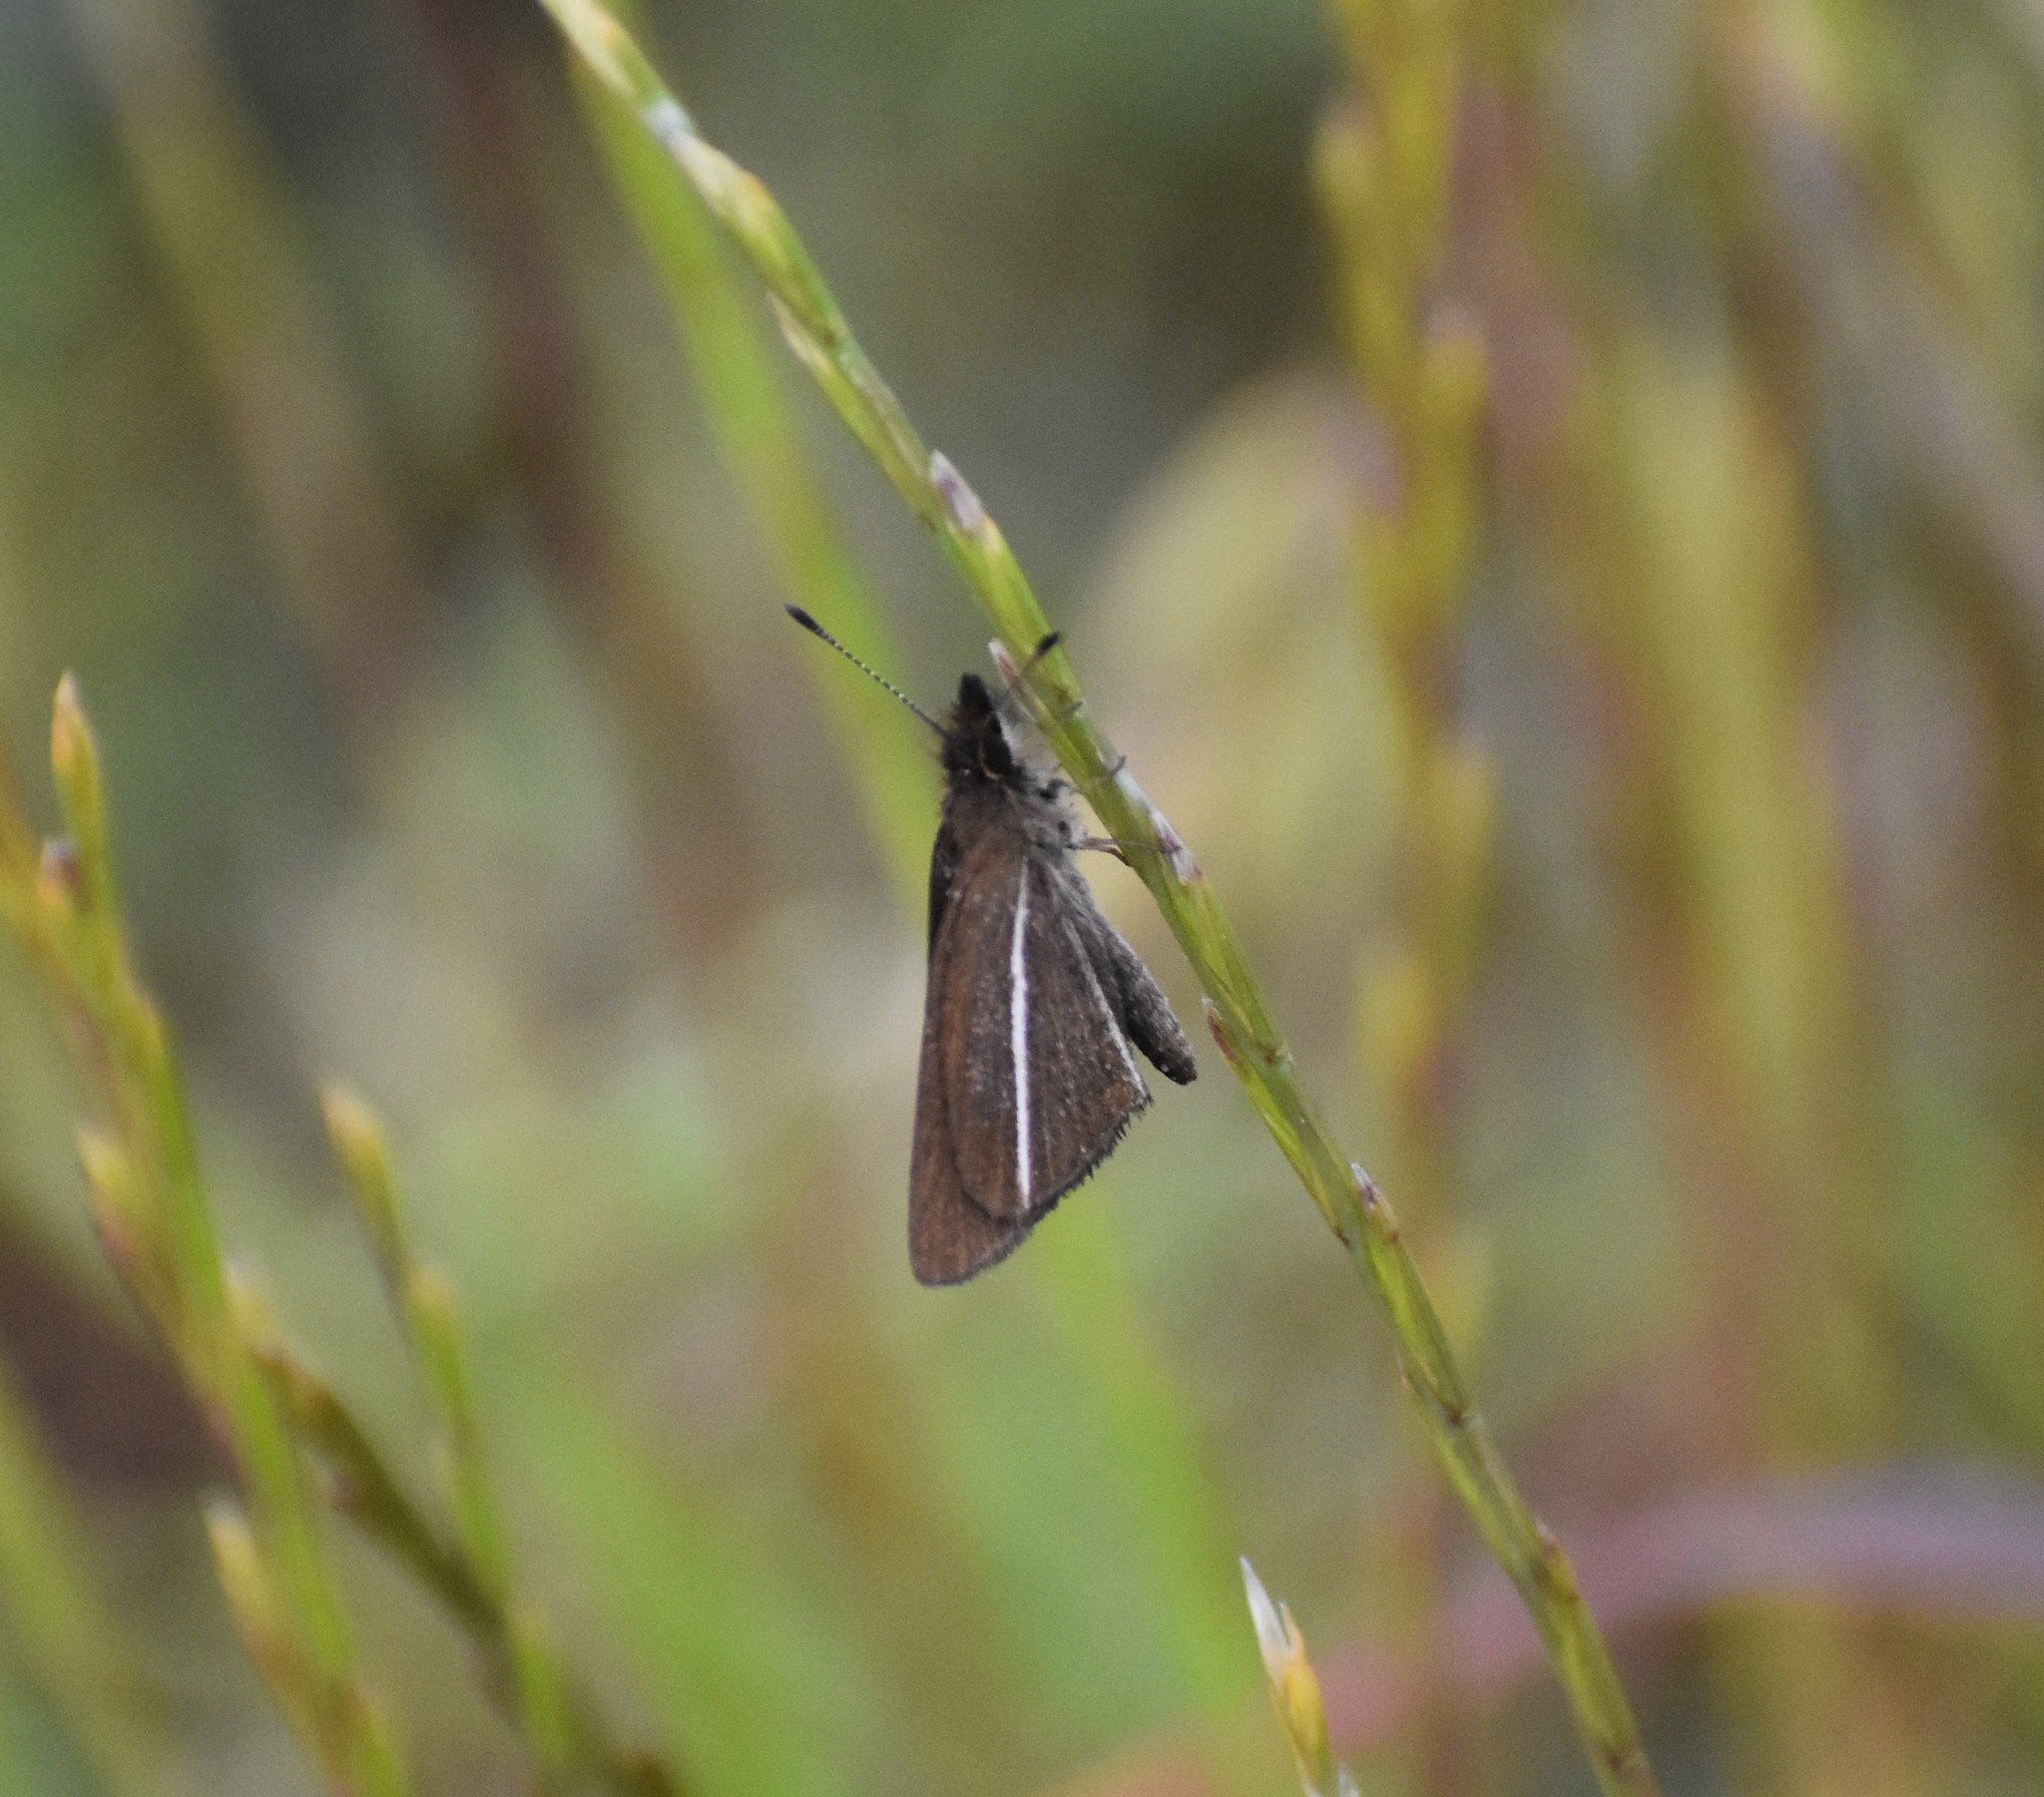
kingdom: Animalia
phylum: Arthropoda
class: Insecta
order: Lepidoptera
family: Hesperiidae
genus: Tsitana
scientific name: Tsitana tsita
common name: Dismal sylph
